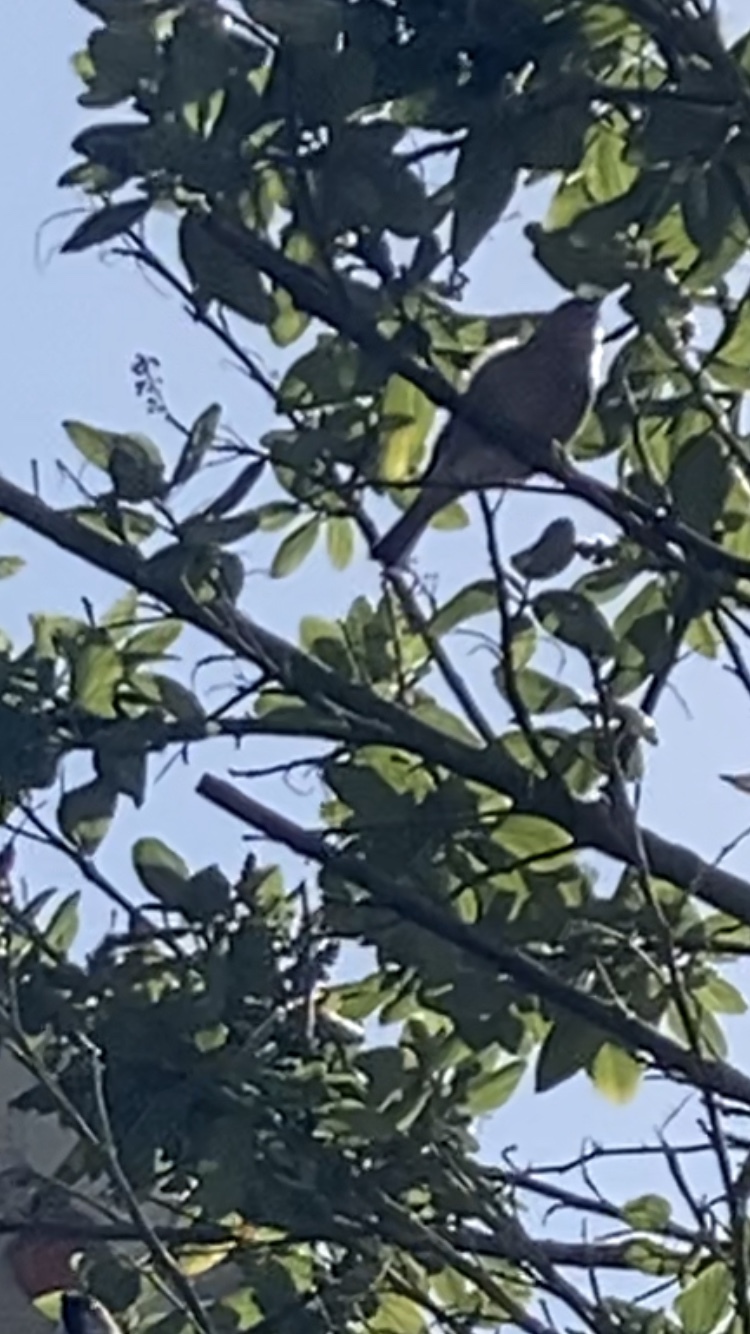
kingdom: Animalia
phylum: Chordata
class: Aves
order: Passeriformes
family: Passeridae
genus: Passer
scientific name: Passer domesticus
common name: House sparrow
